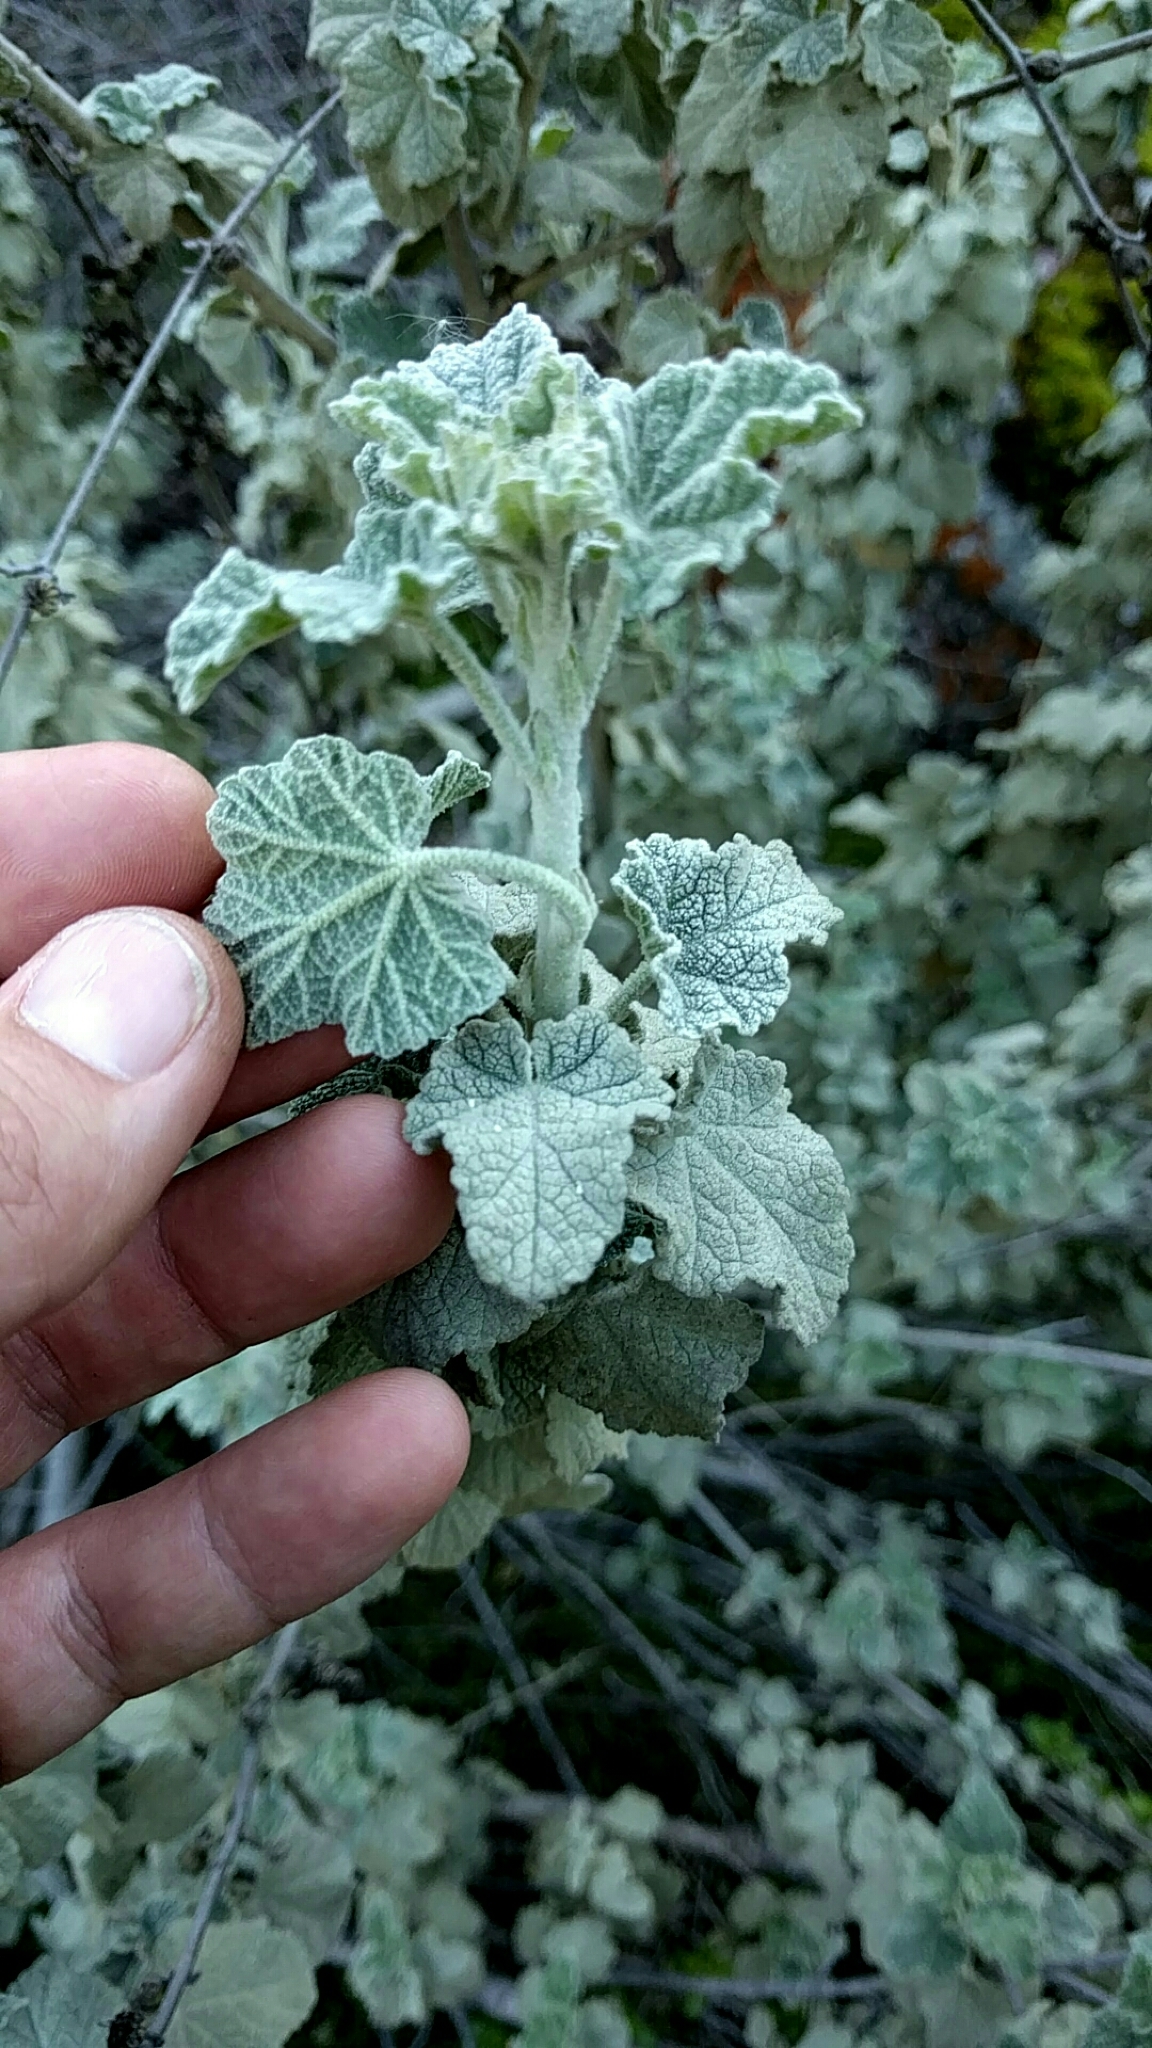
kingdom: Plantae
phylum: Tracheophyta
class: Magnoliopsida
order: Malvales
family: Malvaceae
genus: Malacothamnus
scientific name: Malacothamnus fasciculatus
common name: Sant cruz island bush-mallow
